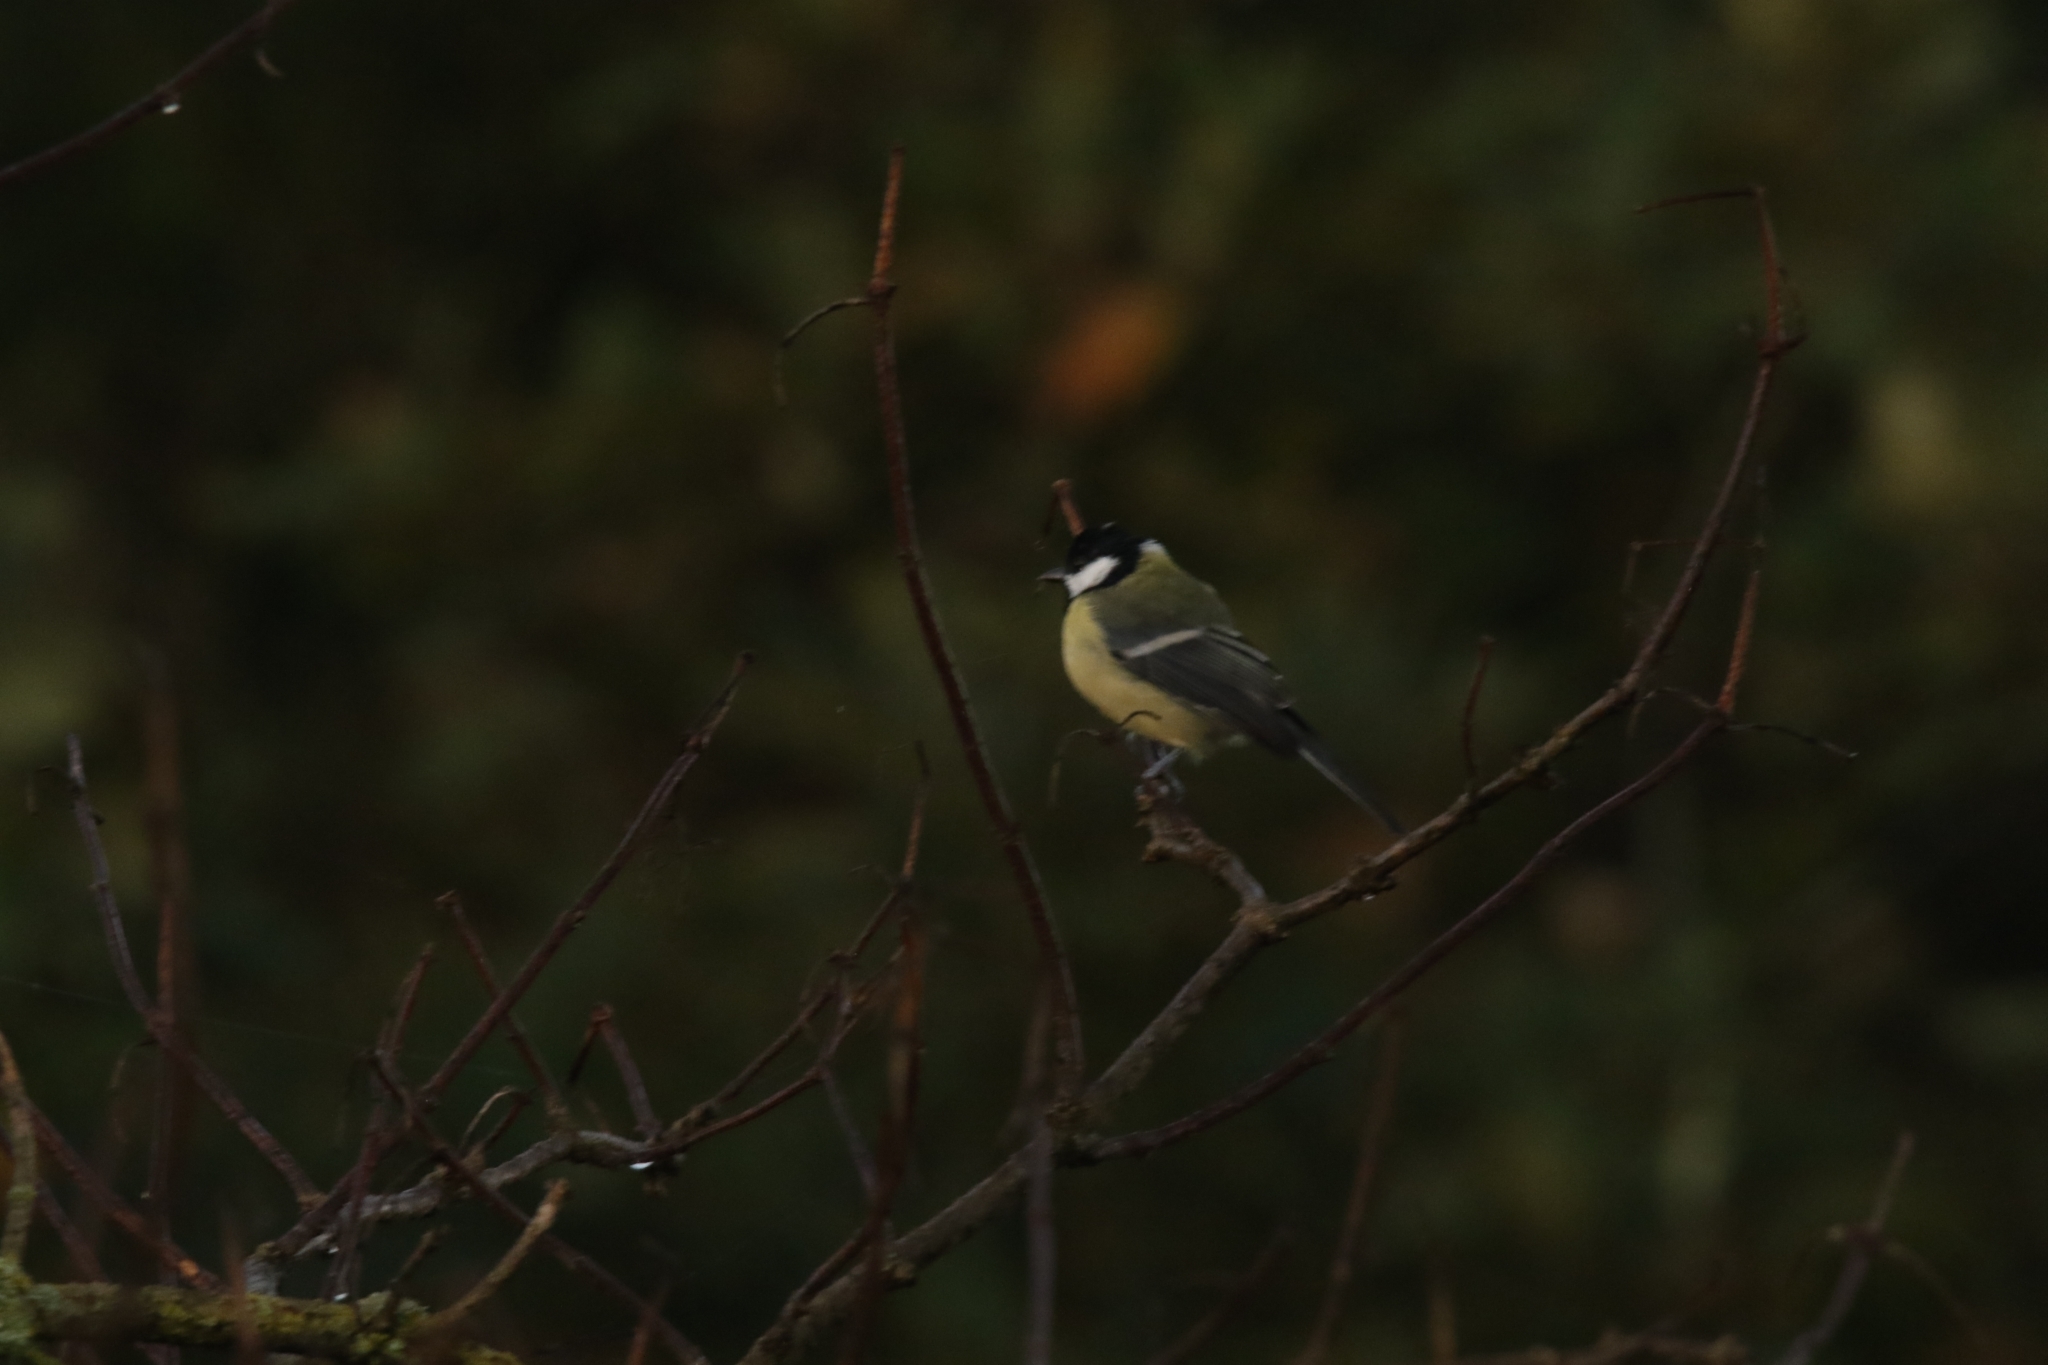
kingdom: Animalia
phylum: Chordata
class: Aves
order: Passeriformes
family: Paridae
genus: Parus
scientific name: Parus major
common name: Great tit
